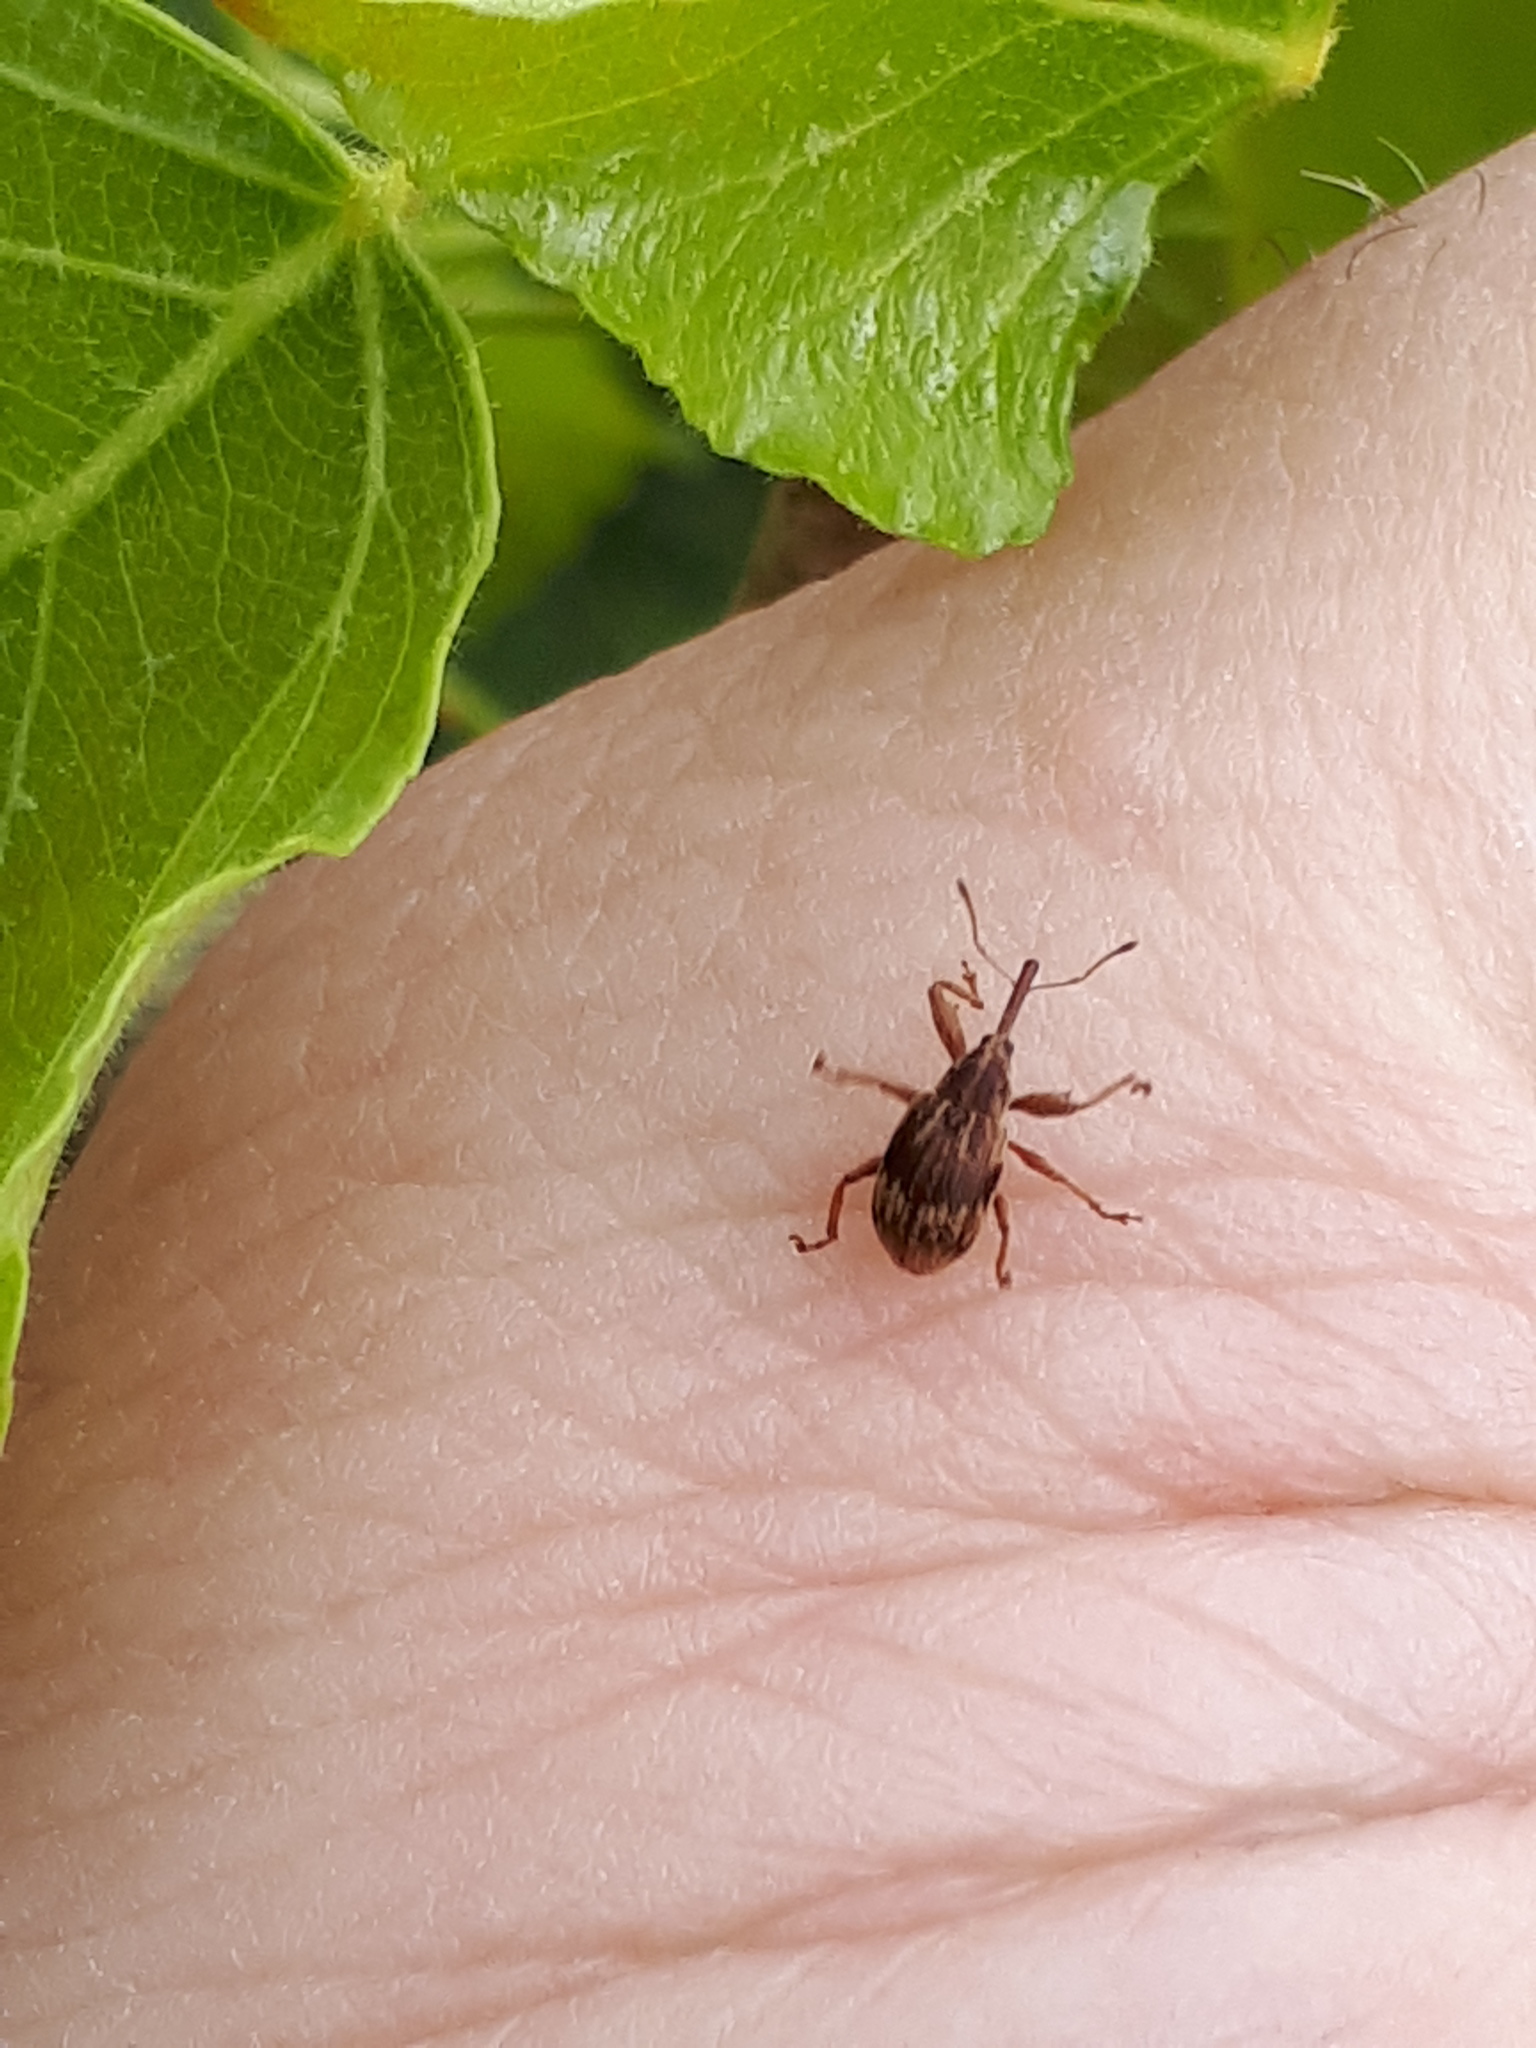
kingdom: Animalia
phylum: Arthropoda
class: Insecta
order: Coleoptera
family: Curculionidae
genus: Anthonomus
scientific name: Anthonomus rectirostris
